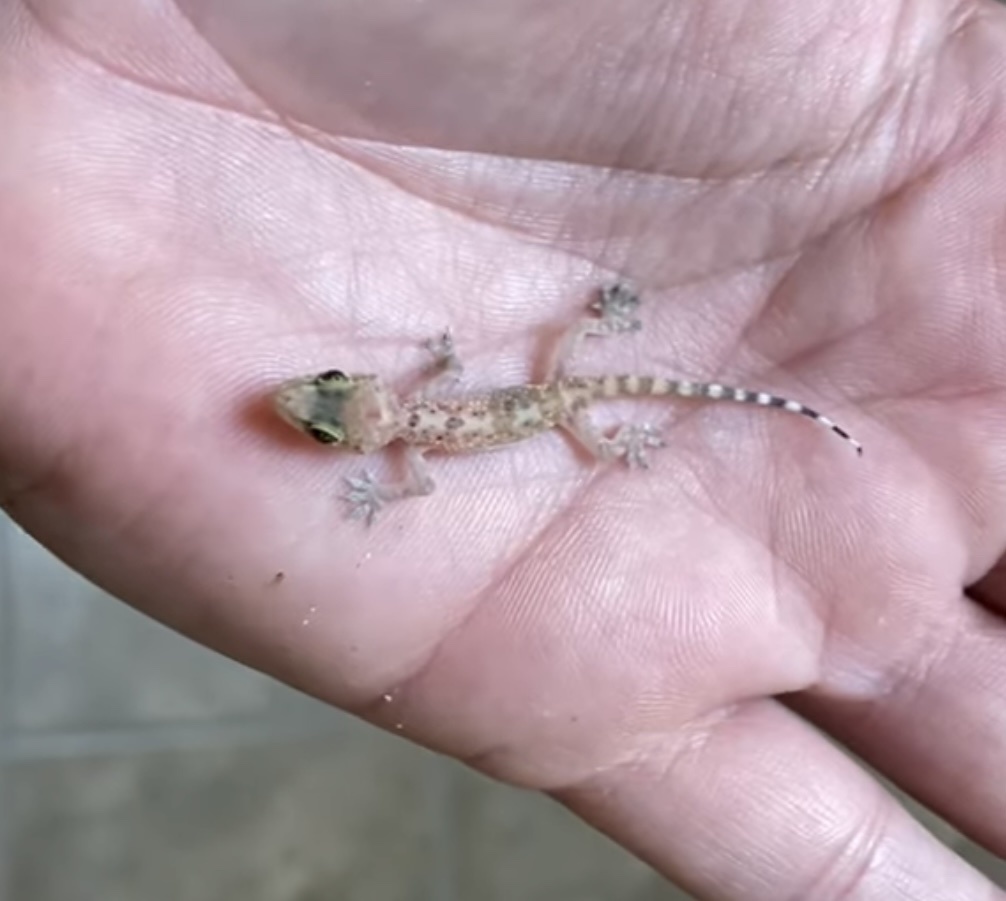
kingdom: Animalia
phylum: Chordata
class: Squamata
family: Gekkonidae
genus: Hemidactylus
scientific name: Hemidactylus turcicus
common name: Turkish gecko
